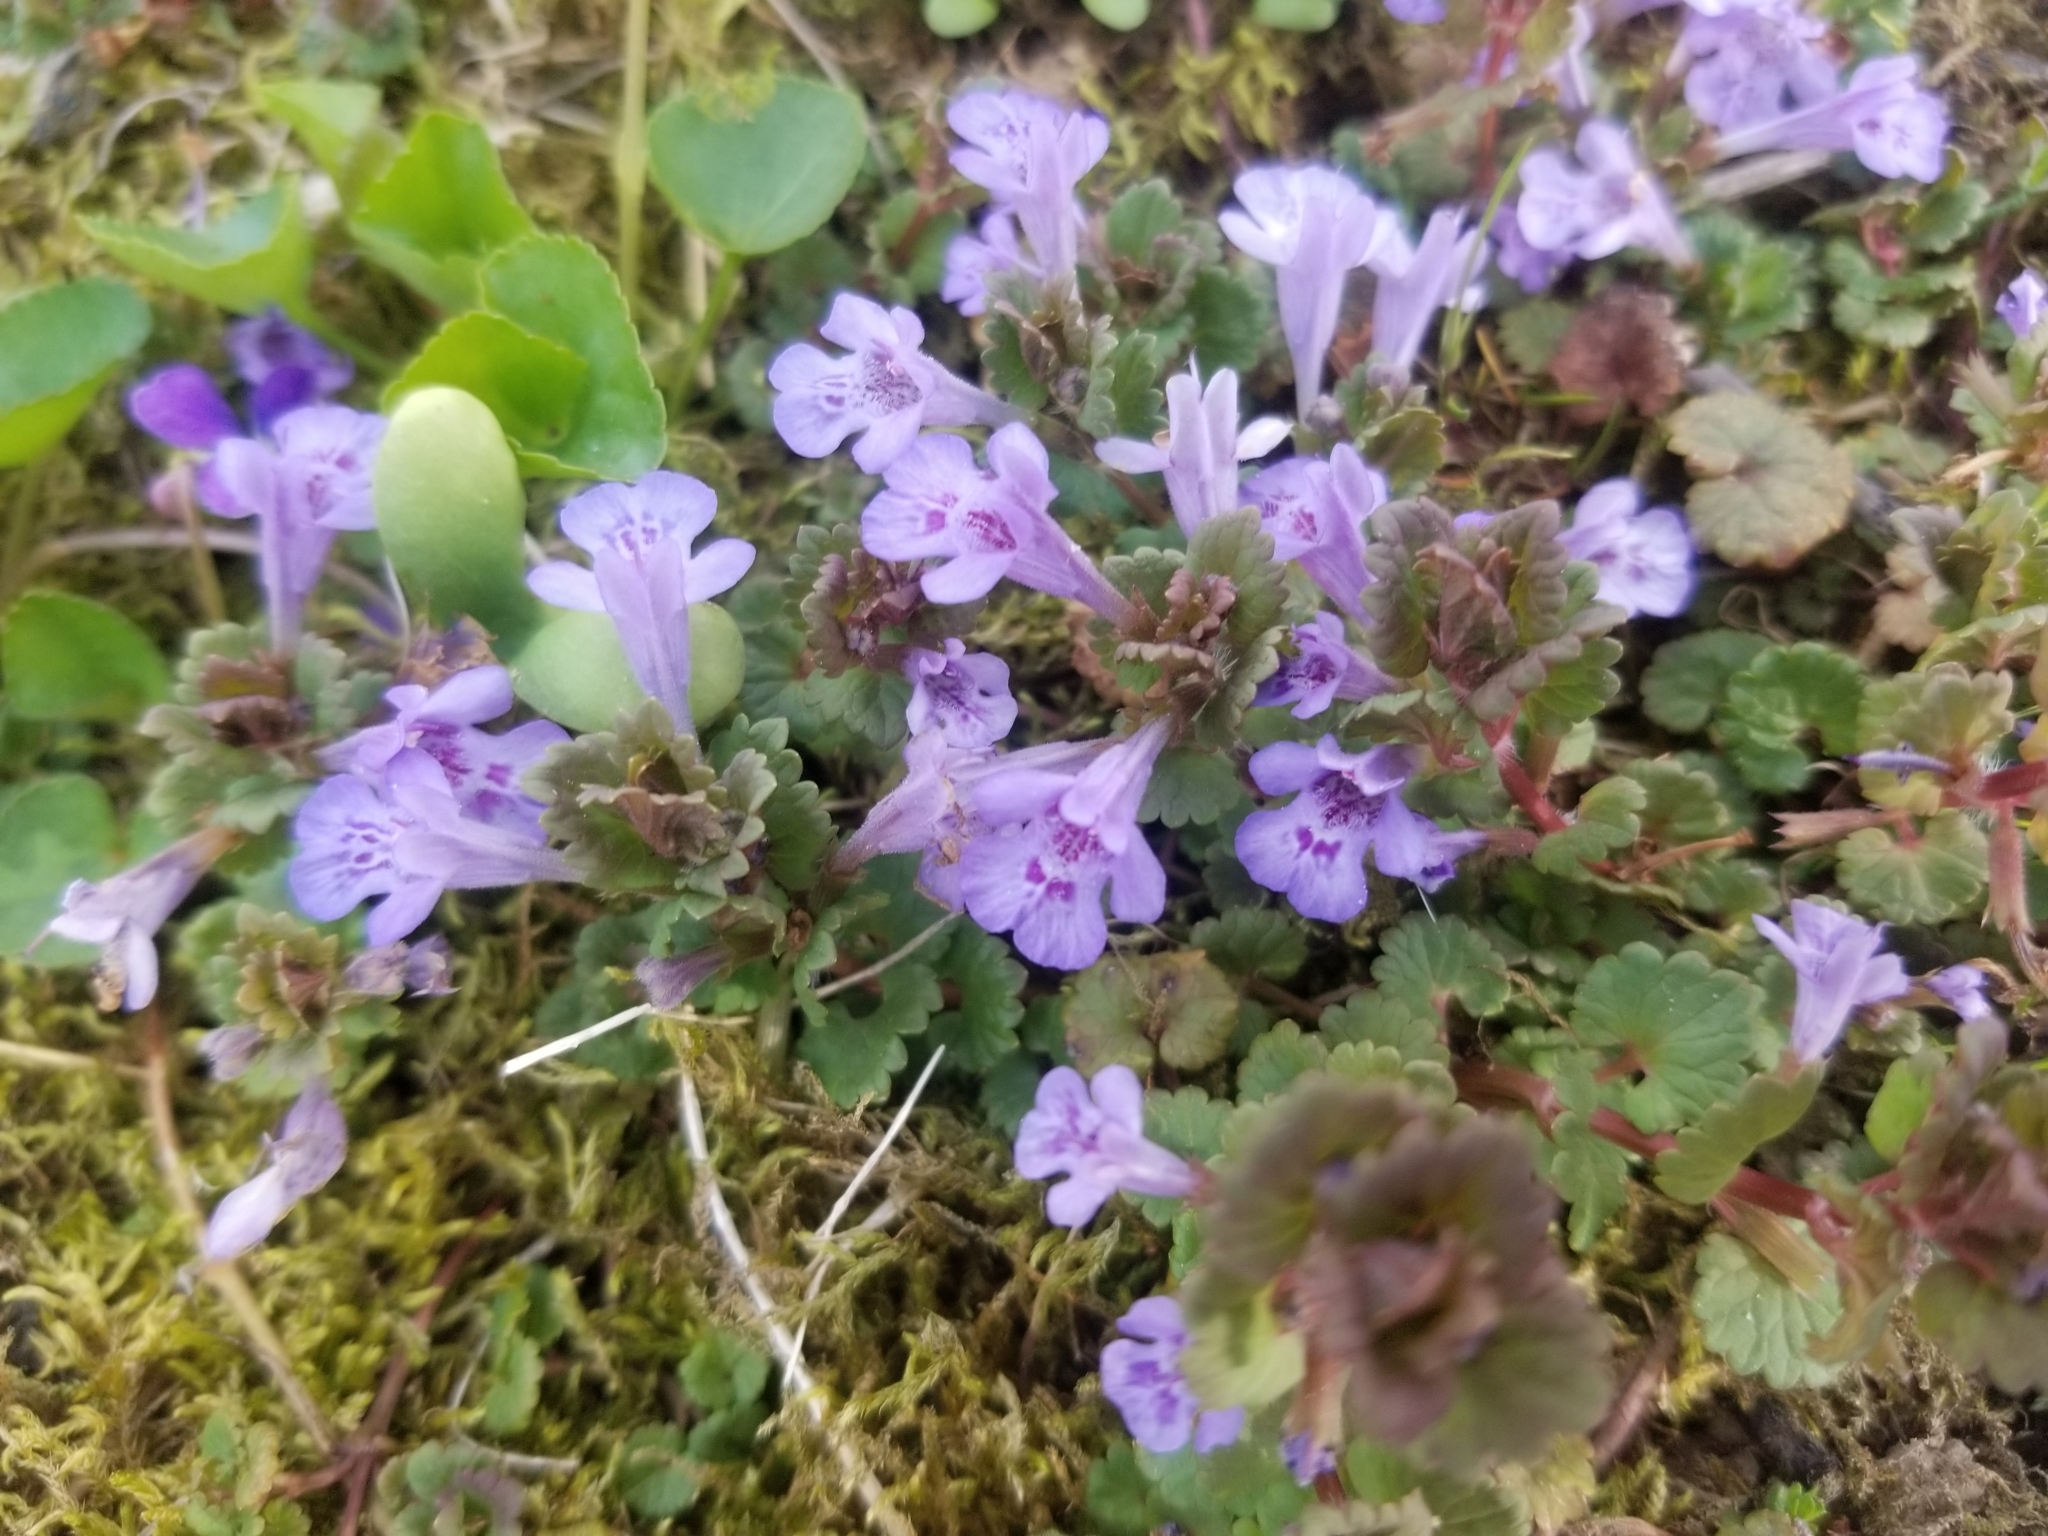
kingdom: Plantae
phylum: Tracheophyta
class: Magnoliopsida
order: Lamiales
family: Lamiaceae
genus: Glechoma
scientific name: Glechoma hederacea
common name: Ground ivy
